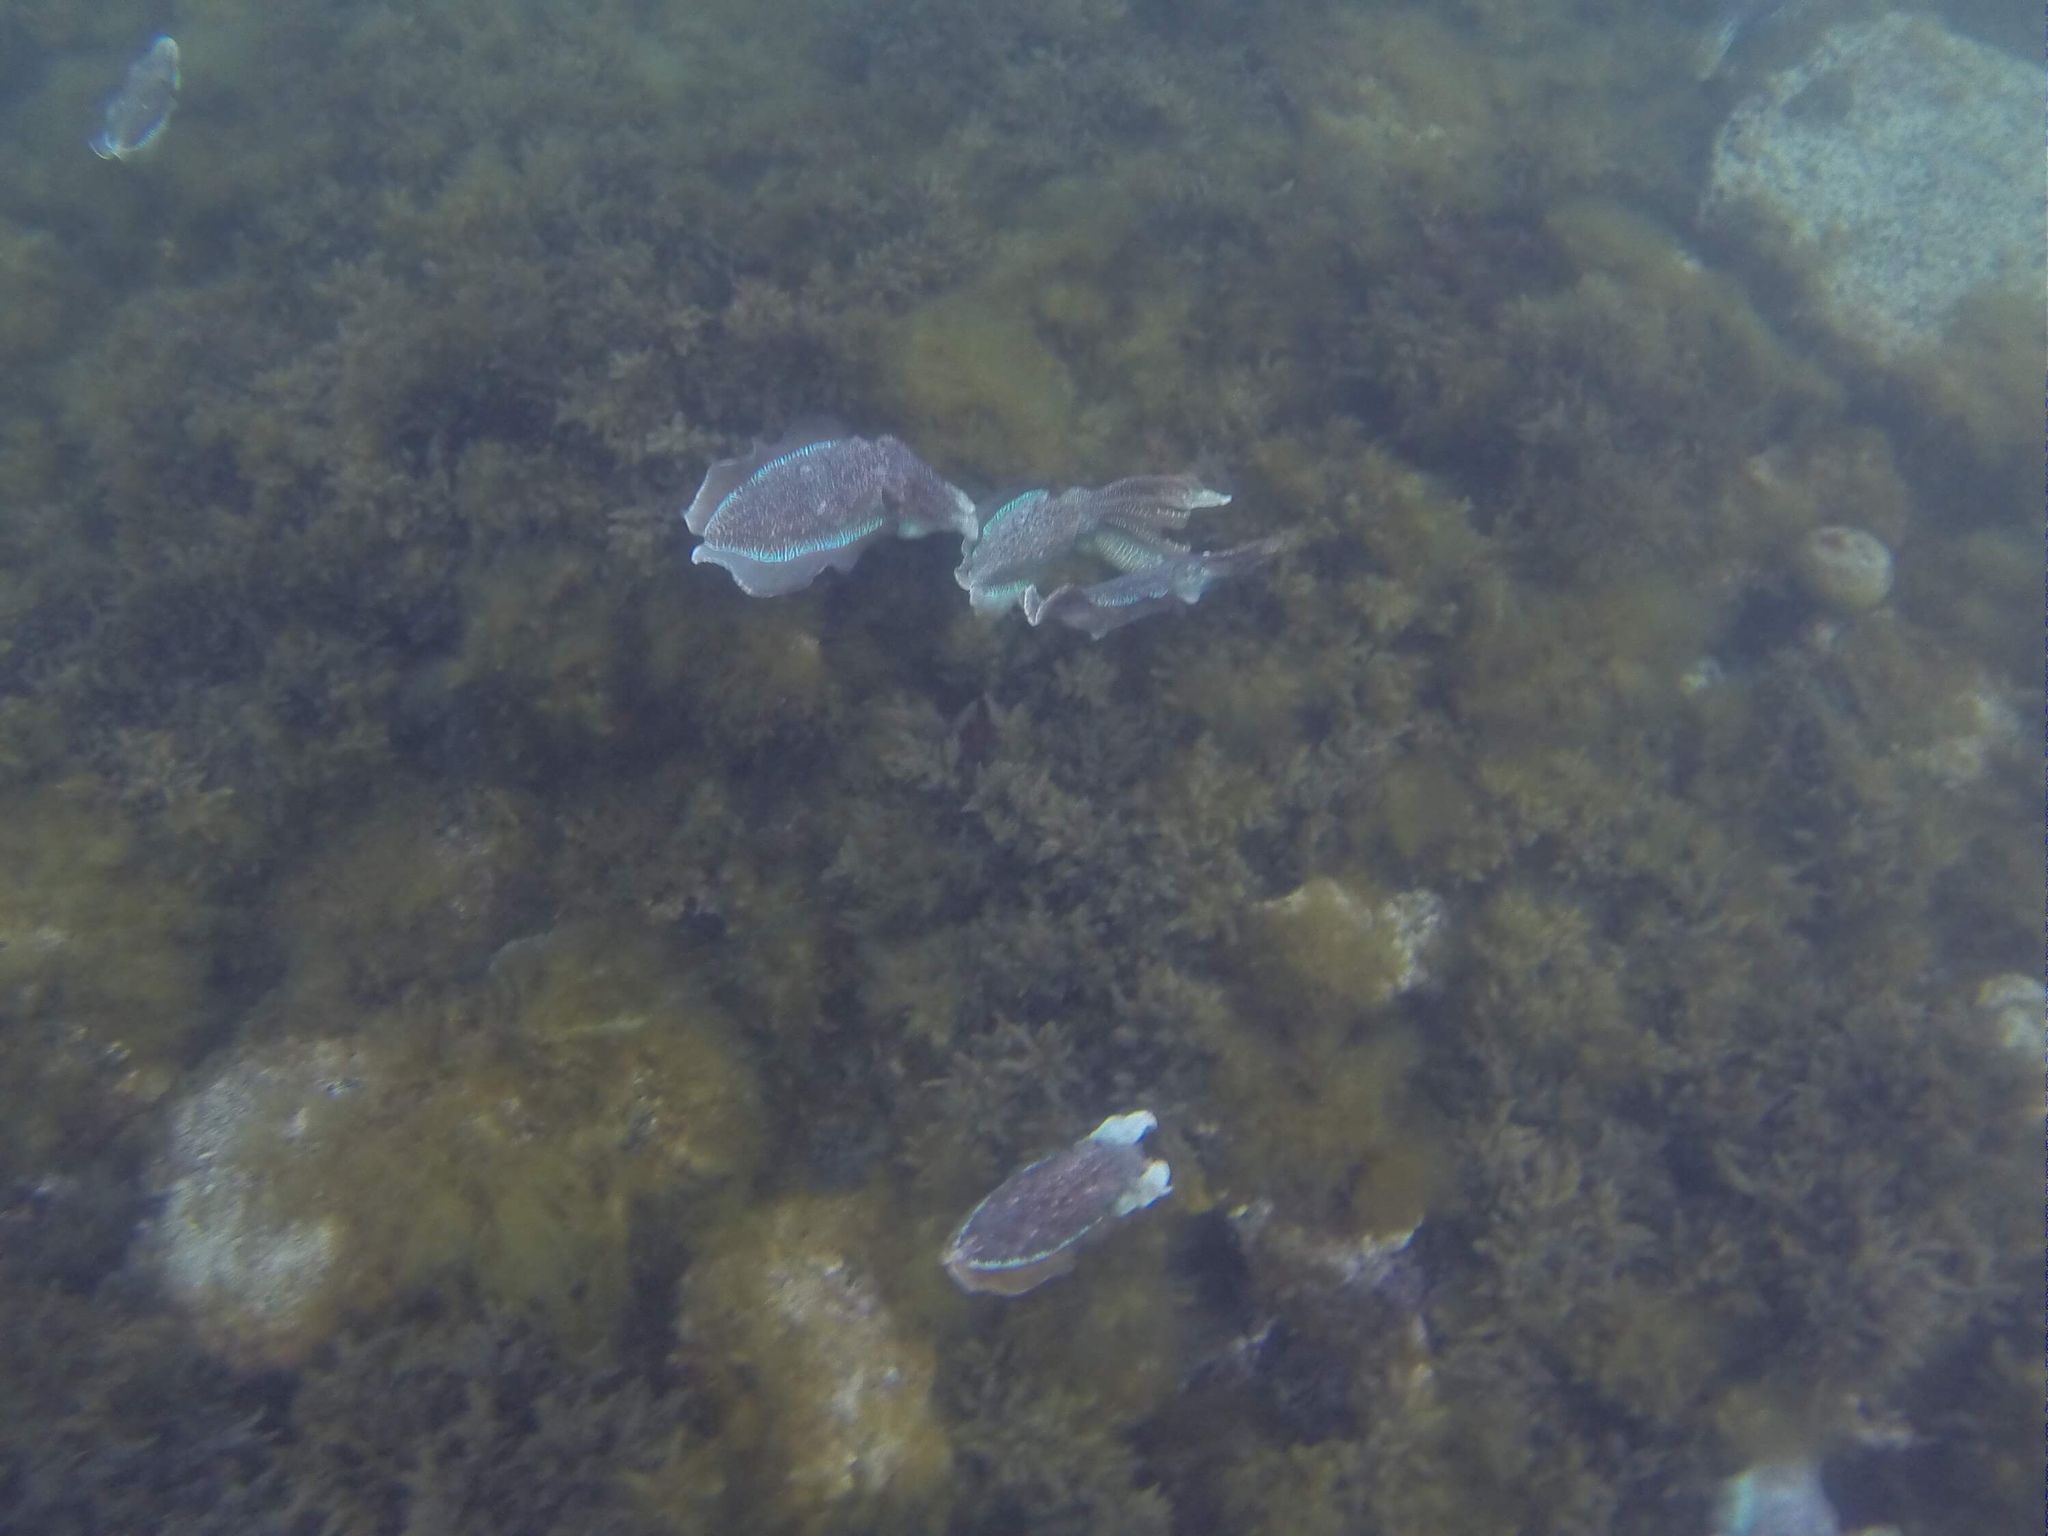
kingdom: Animalia
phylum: Mollusca
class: Cephalopoda
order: Sepiida
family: Sepiidae
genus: Ascarosepion
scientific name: Ascarosepion apama
